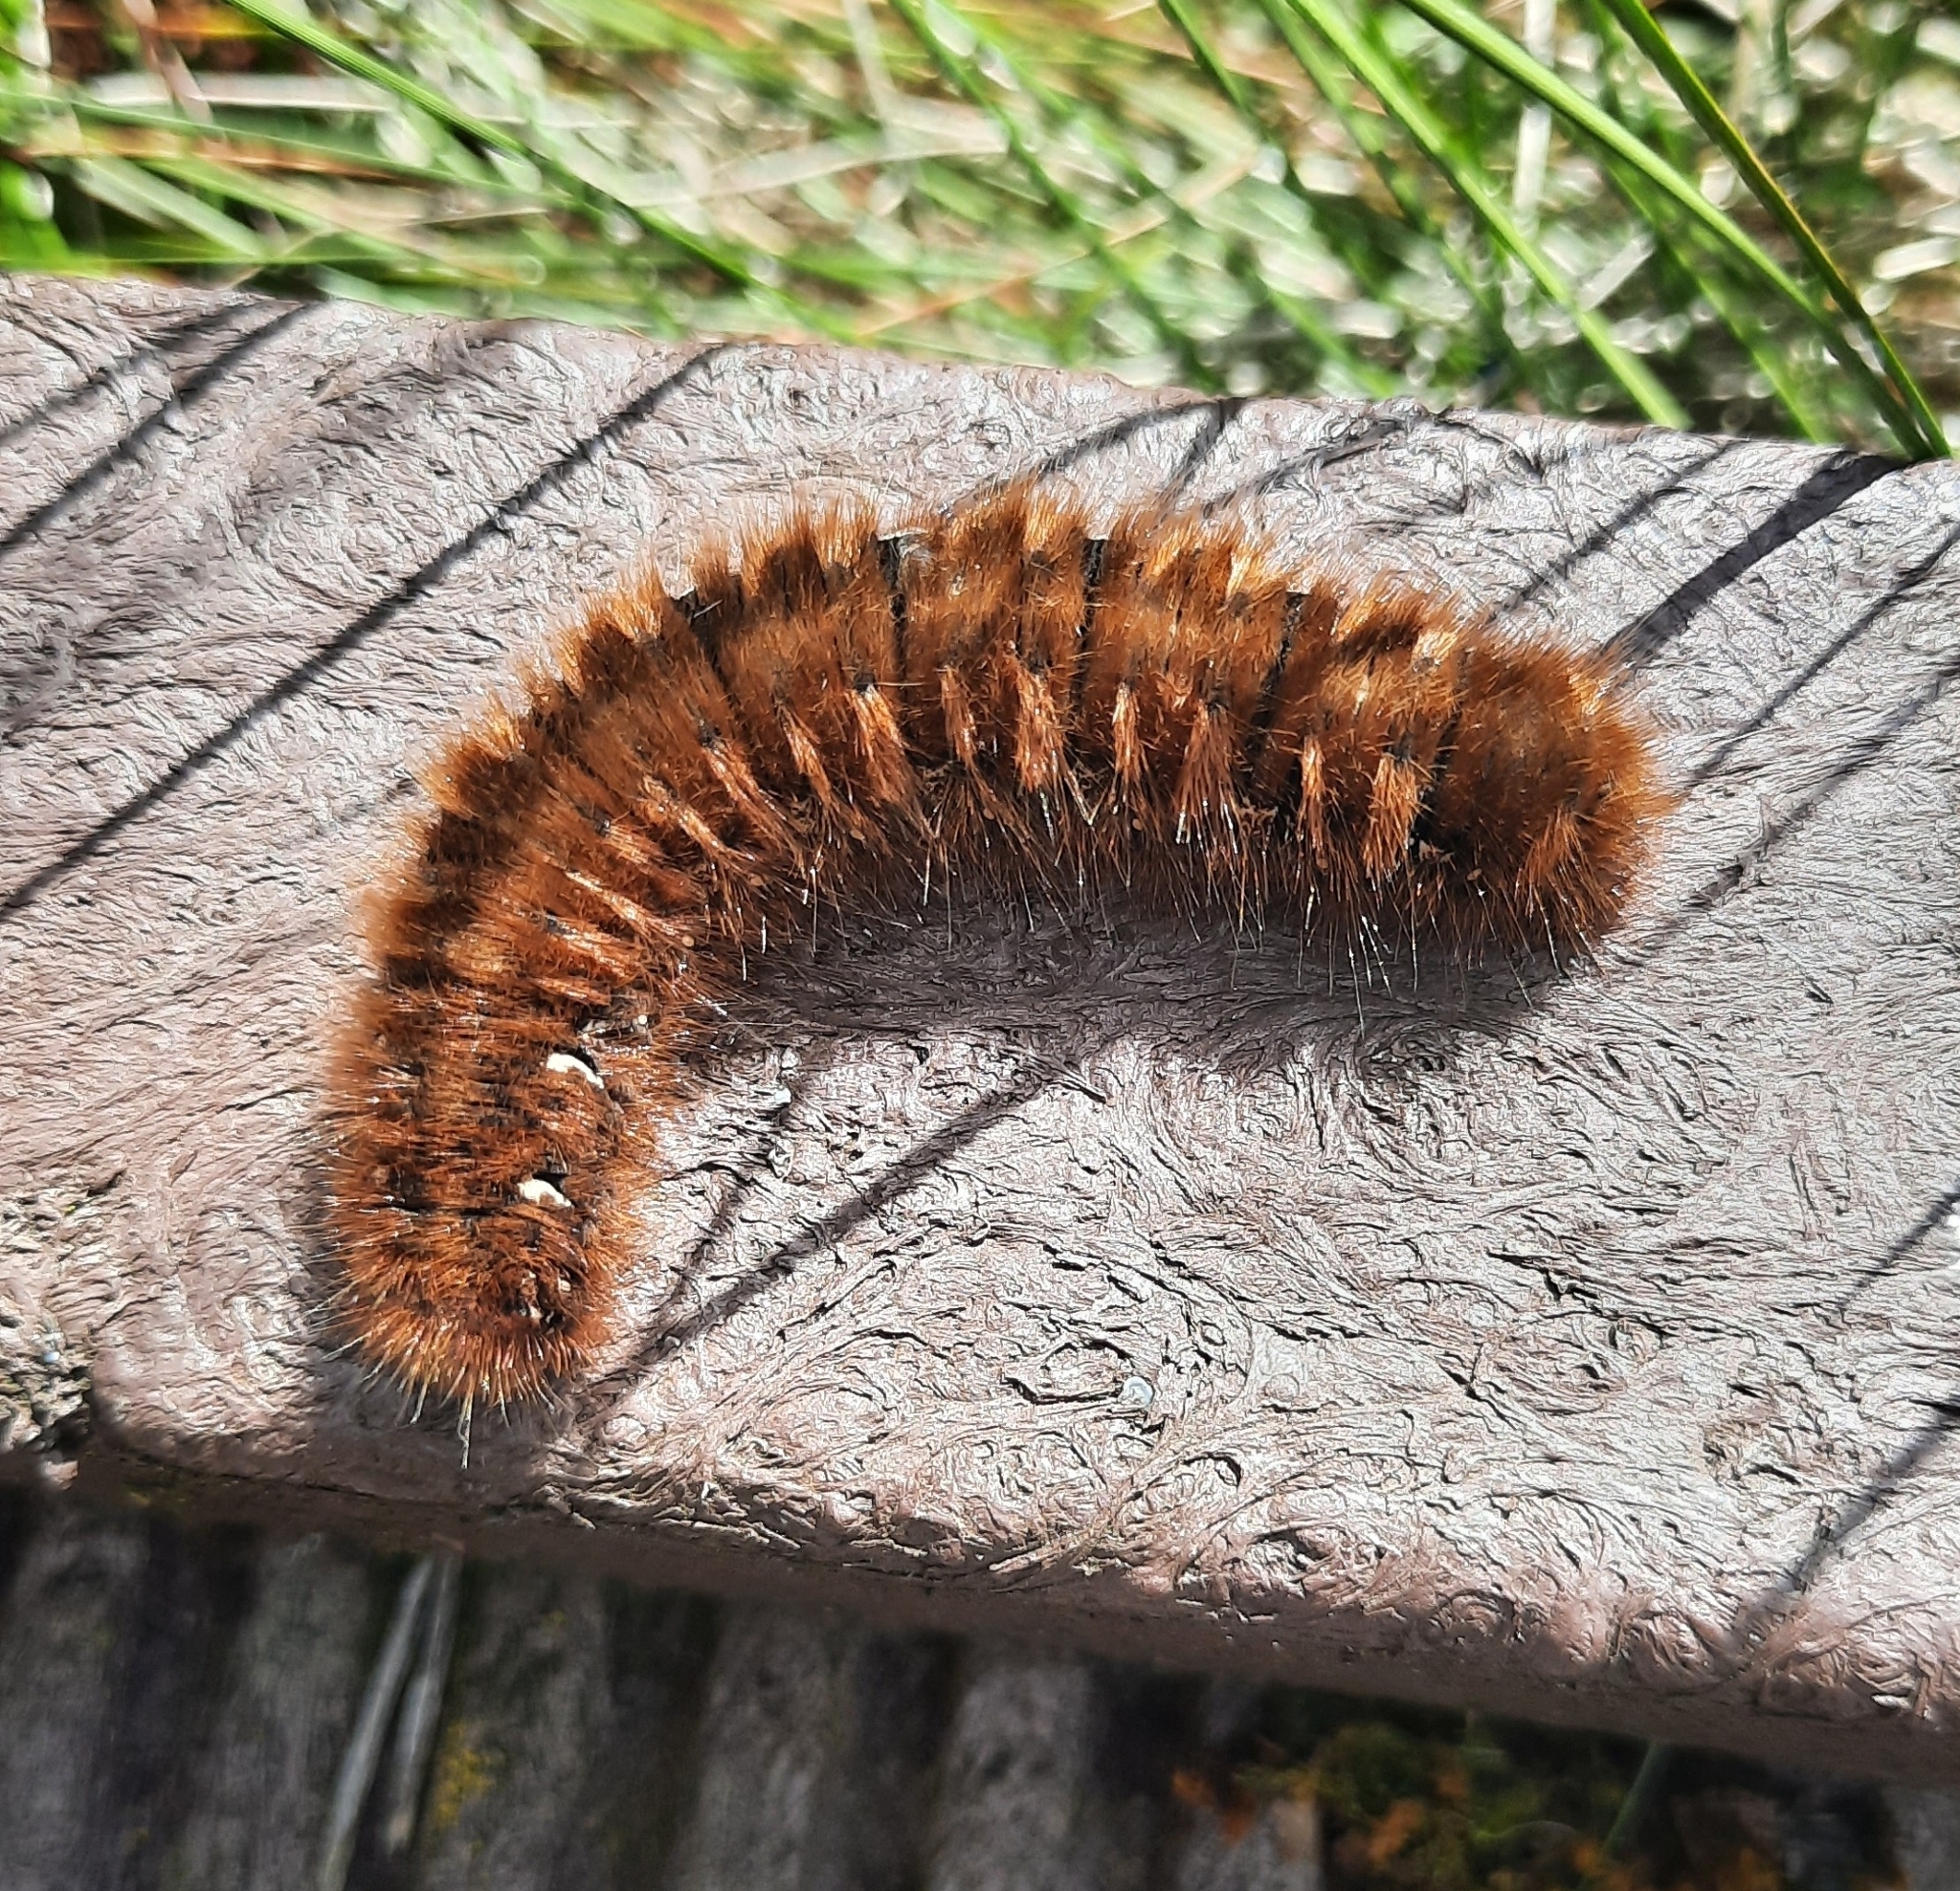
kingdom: Animalia
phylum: Arthropoda
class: Insecta
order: Lepidoptera
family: Lasiocampidae
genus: Lasiocampa
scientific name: Lasiocampa quercus
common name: Oak eggar
